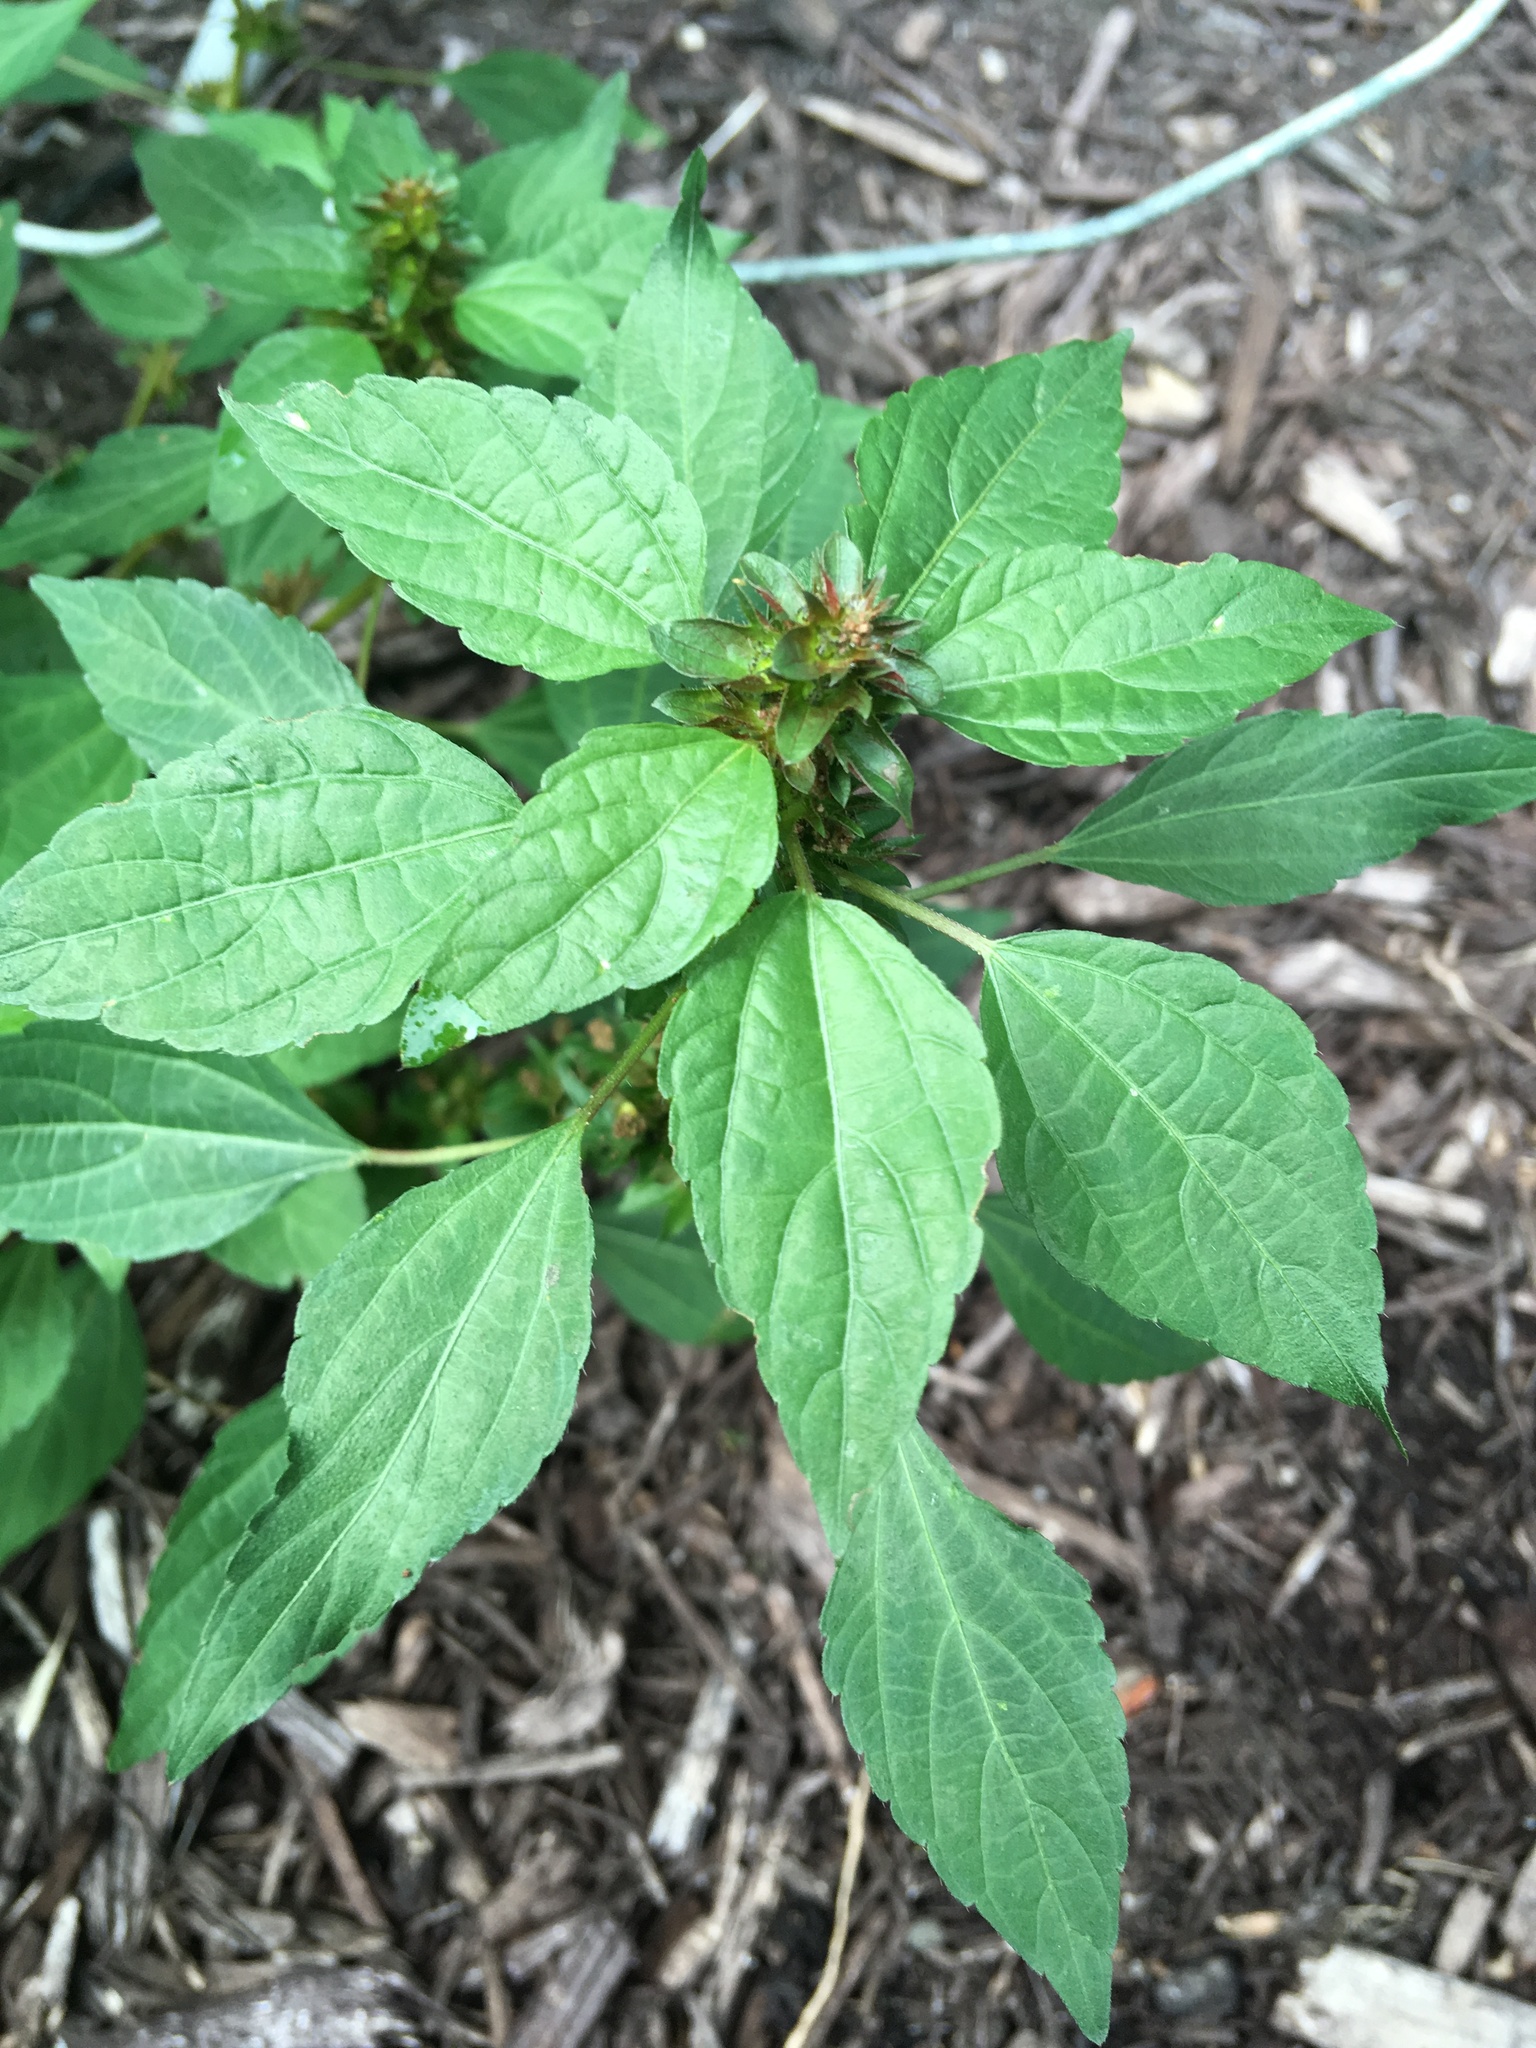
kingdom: Plantae
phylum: Tracheophyta
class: Magnoliopsida
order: Malpighiales
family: Euphorbiaceae
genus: Acalypha
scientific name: Acalypha rhomboidea
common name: Rhombic copperleaf
